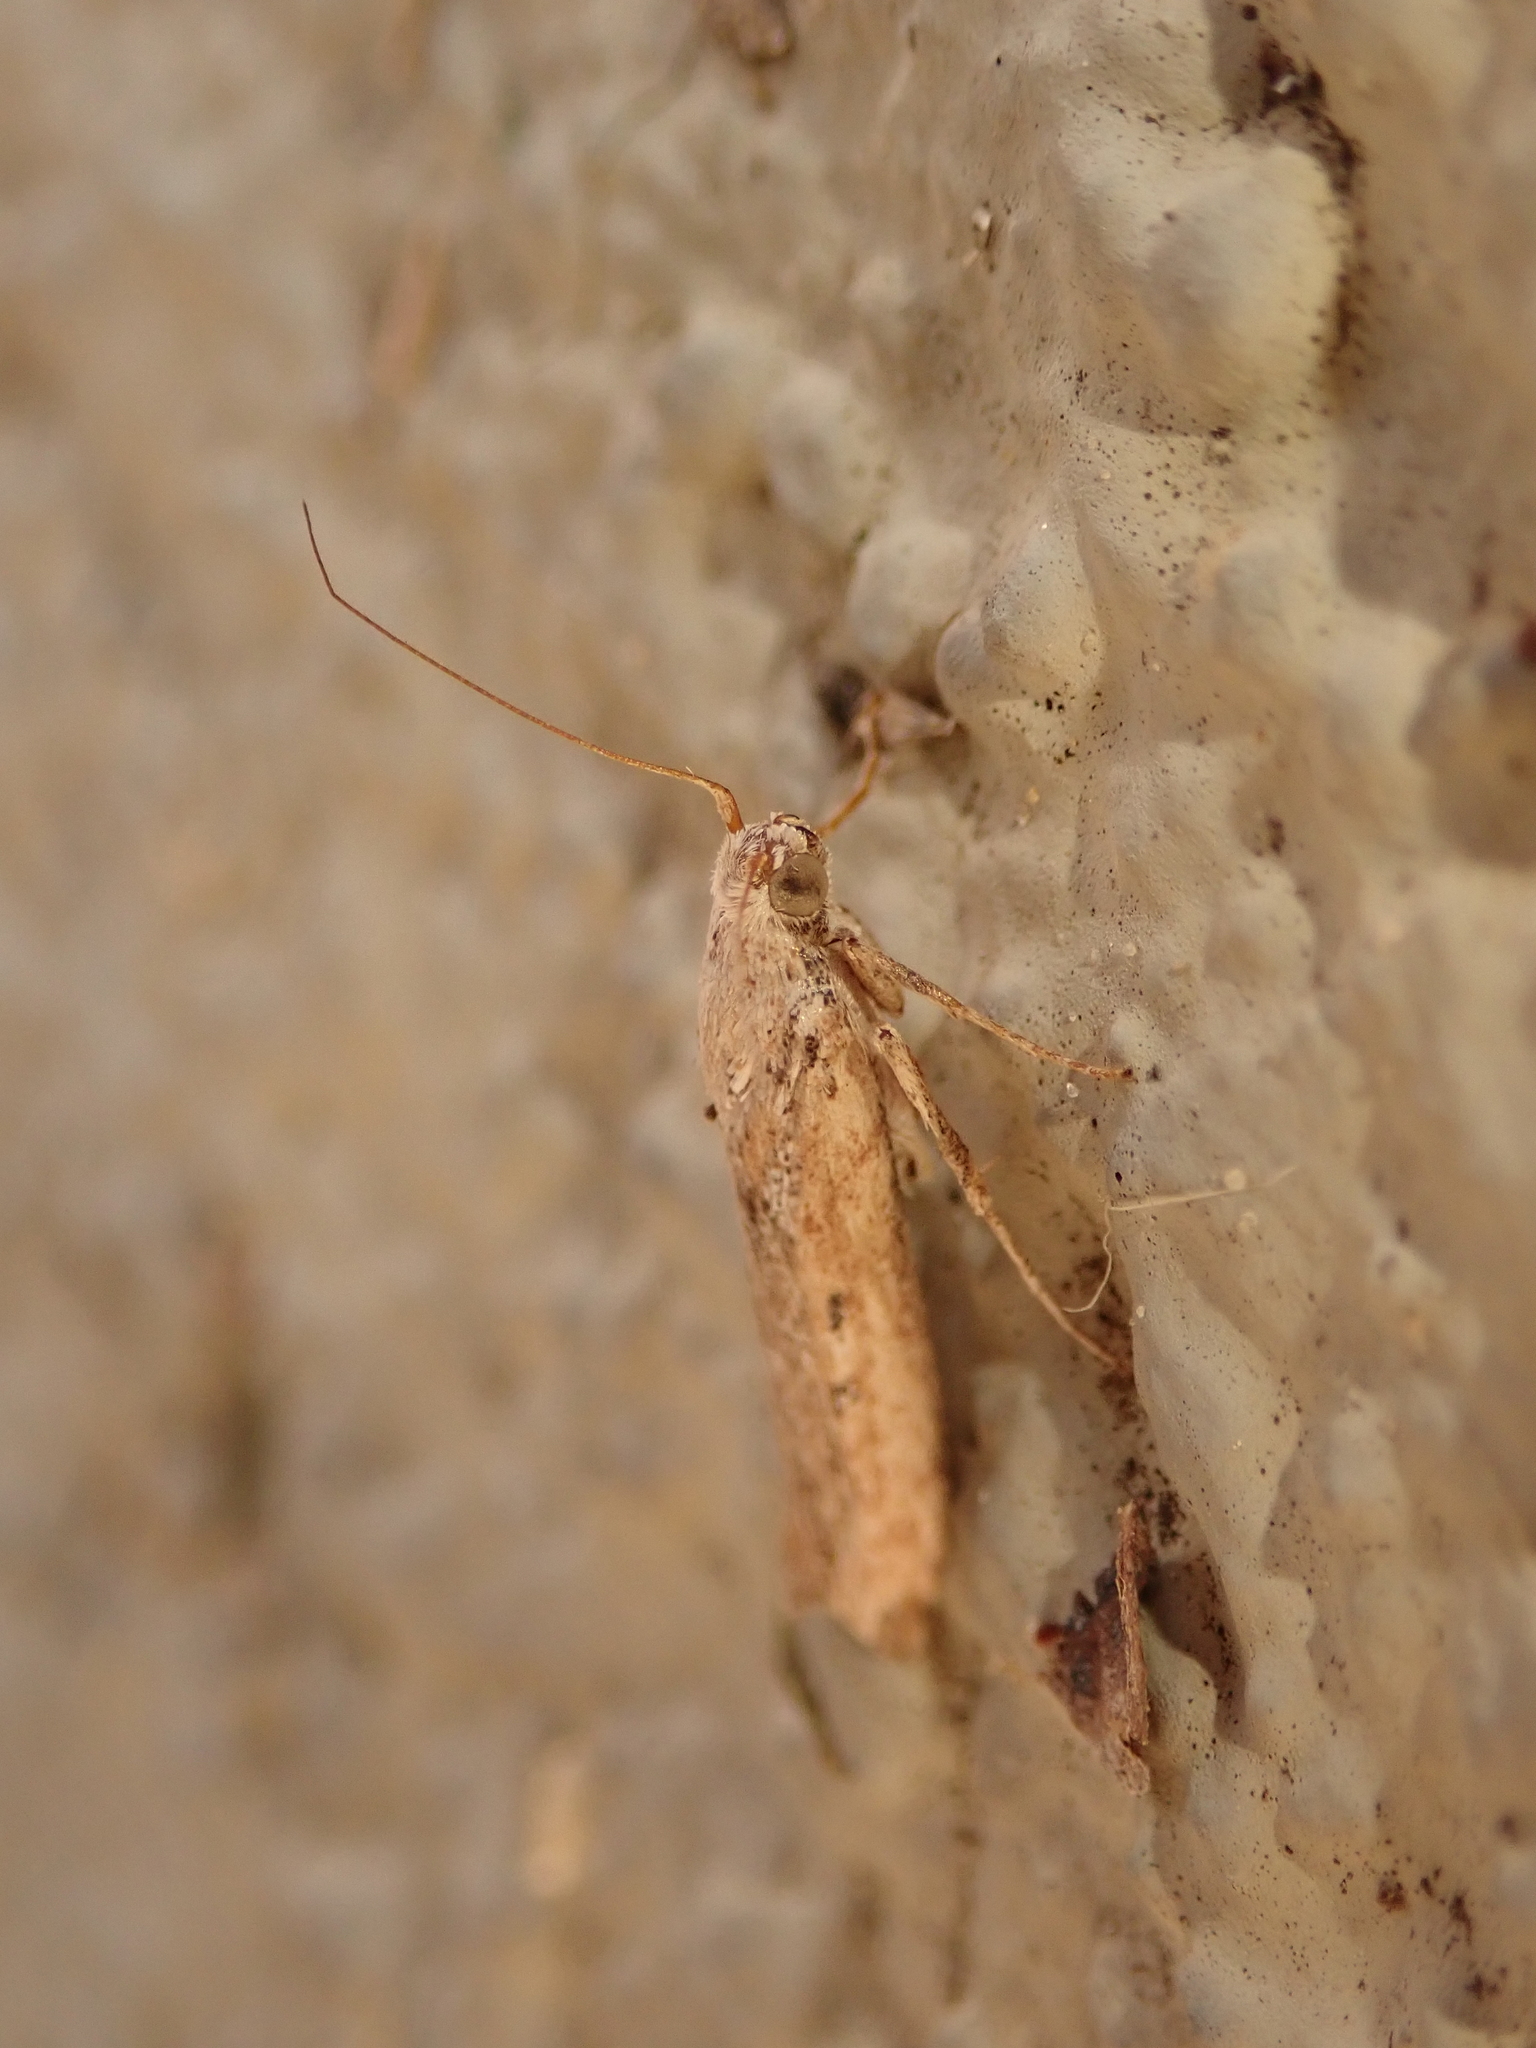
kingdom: Animalia
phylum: Arthropoda
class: Insecta
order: Lepidoptera
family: Oecophoridae
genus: Hofmannophila
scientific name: Hofmannophila pseudospretella
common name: Brown house moth
